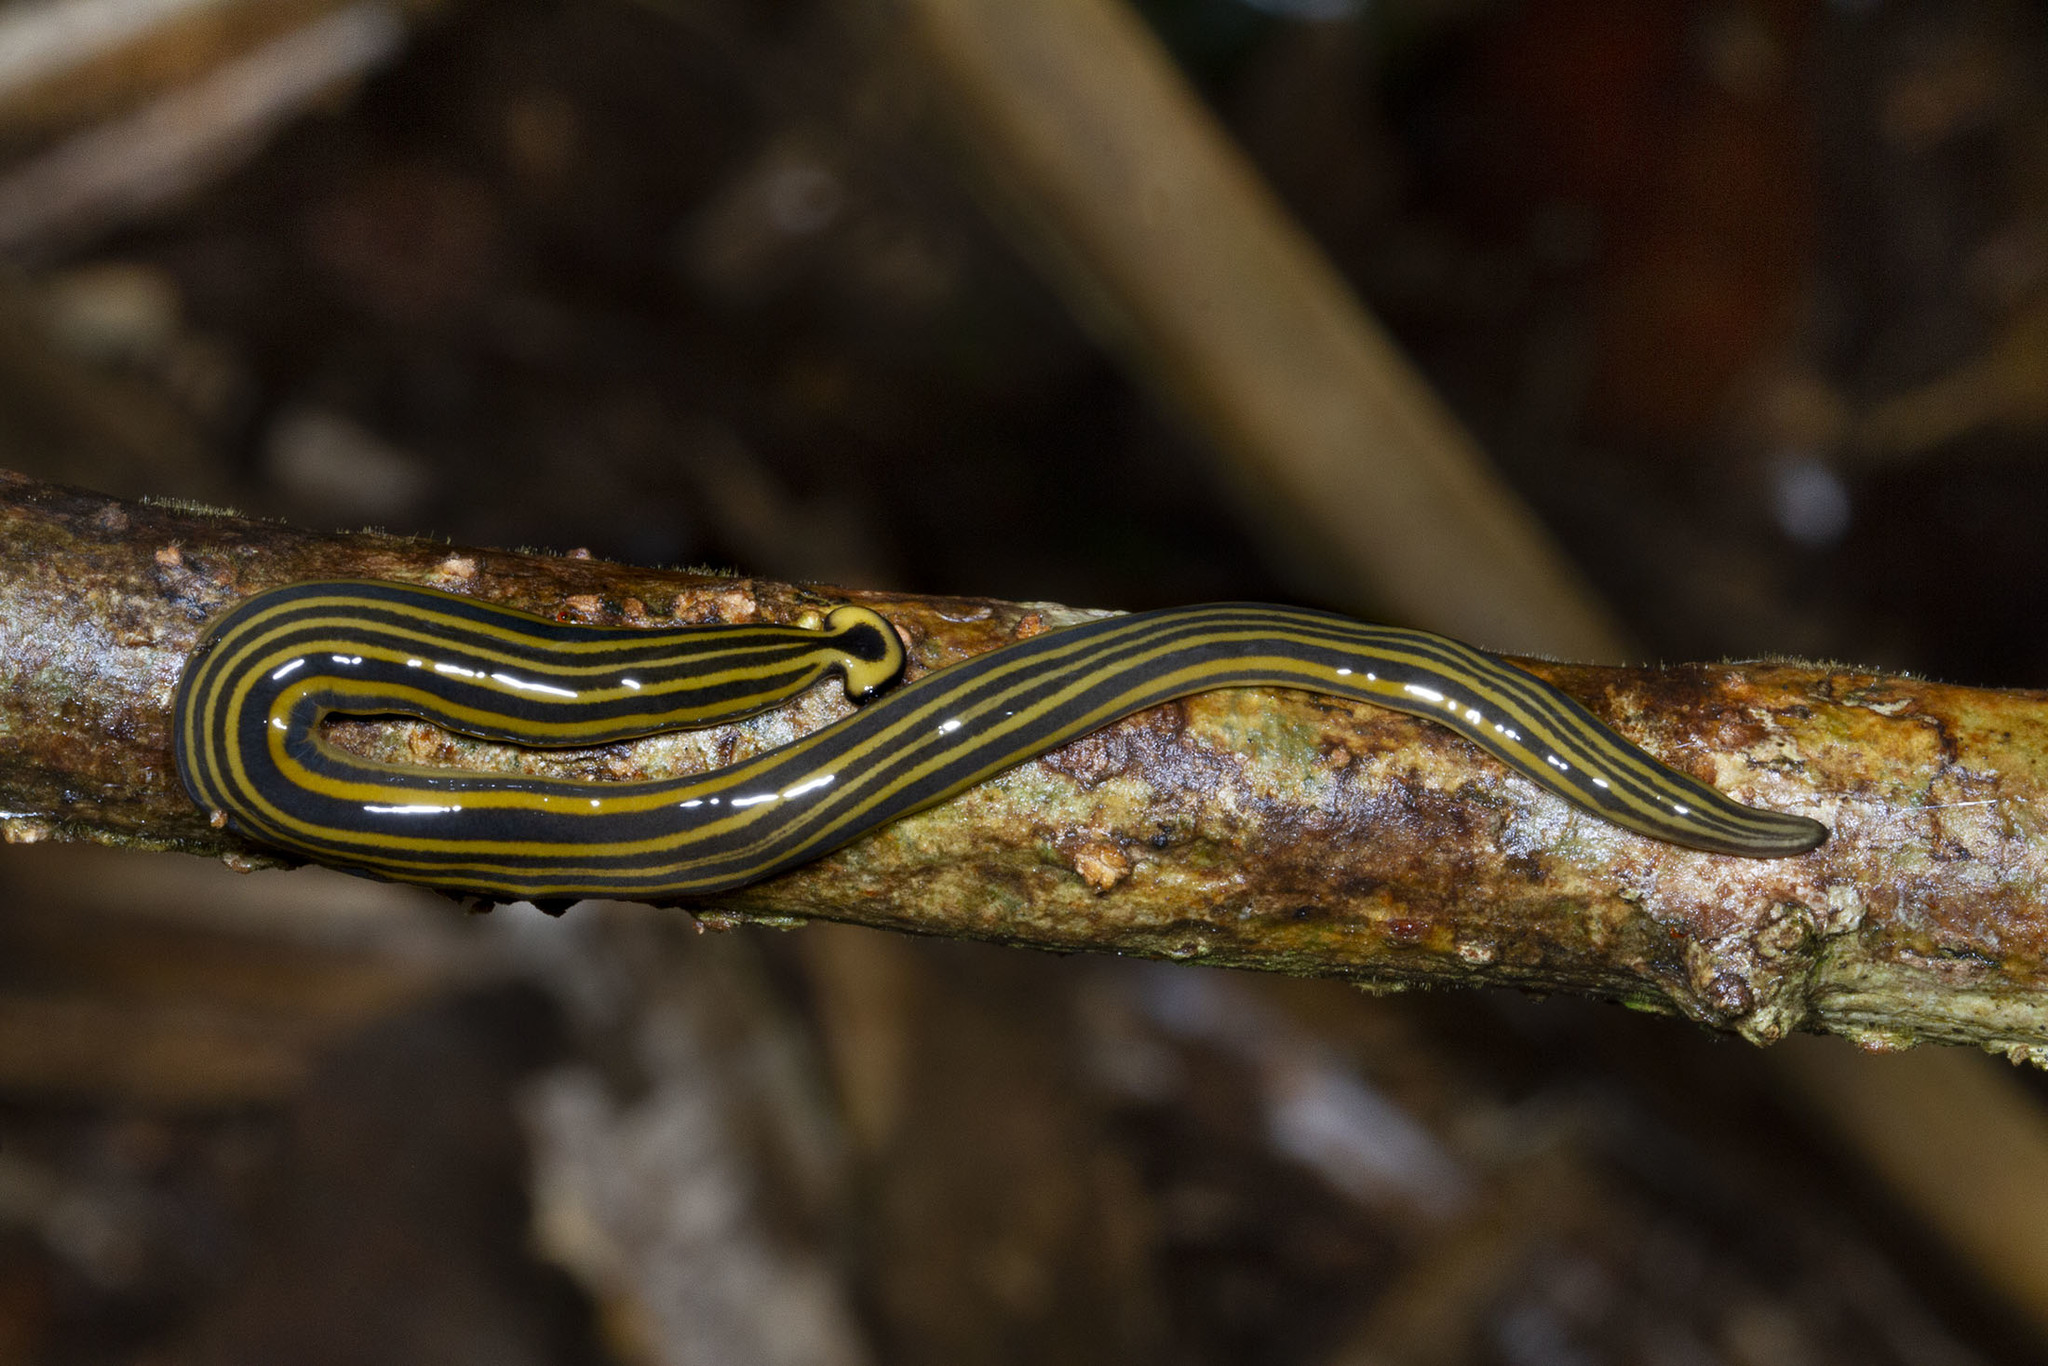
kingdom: Animalia
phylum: Platyhelminthes
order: Tricladida
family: Geoplanidae
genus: Humbertium
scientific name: Humbertium girardi
